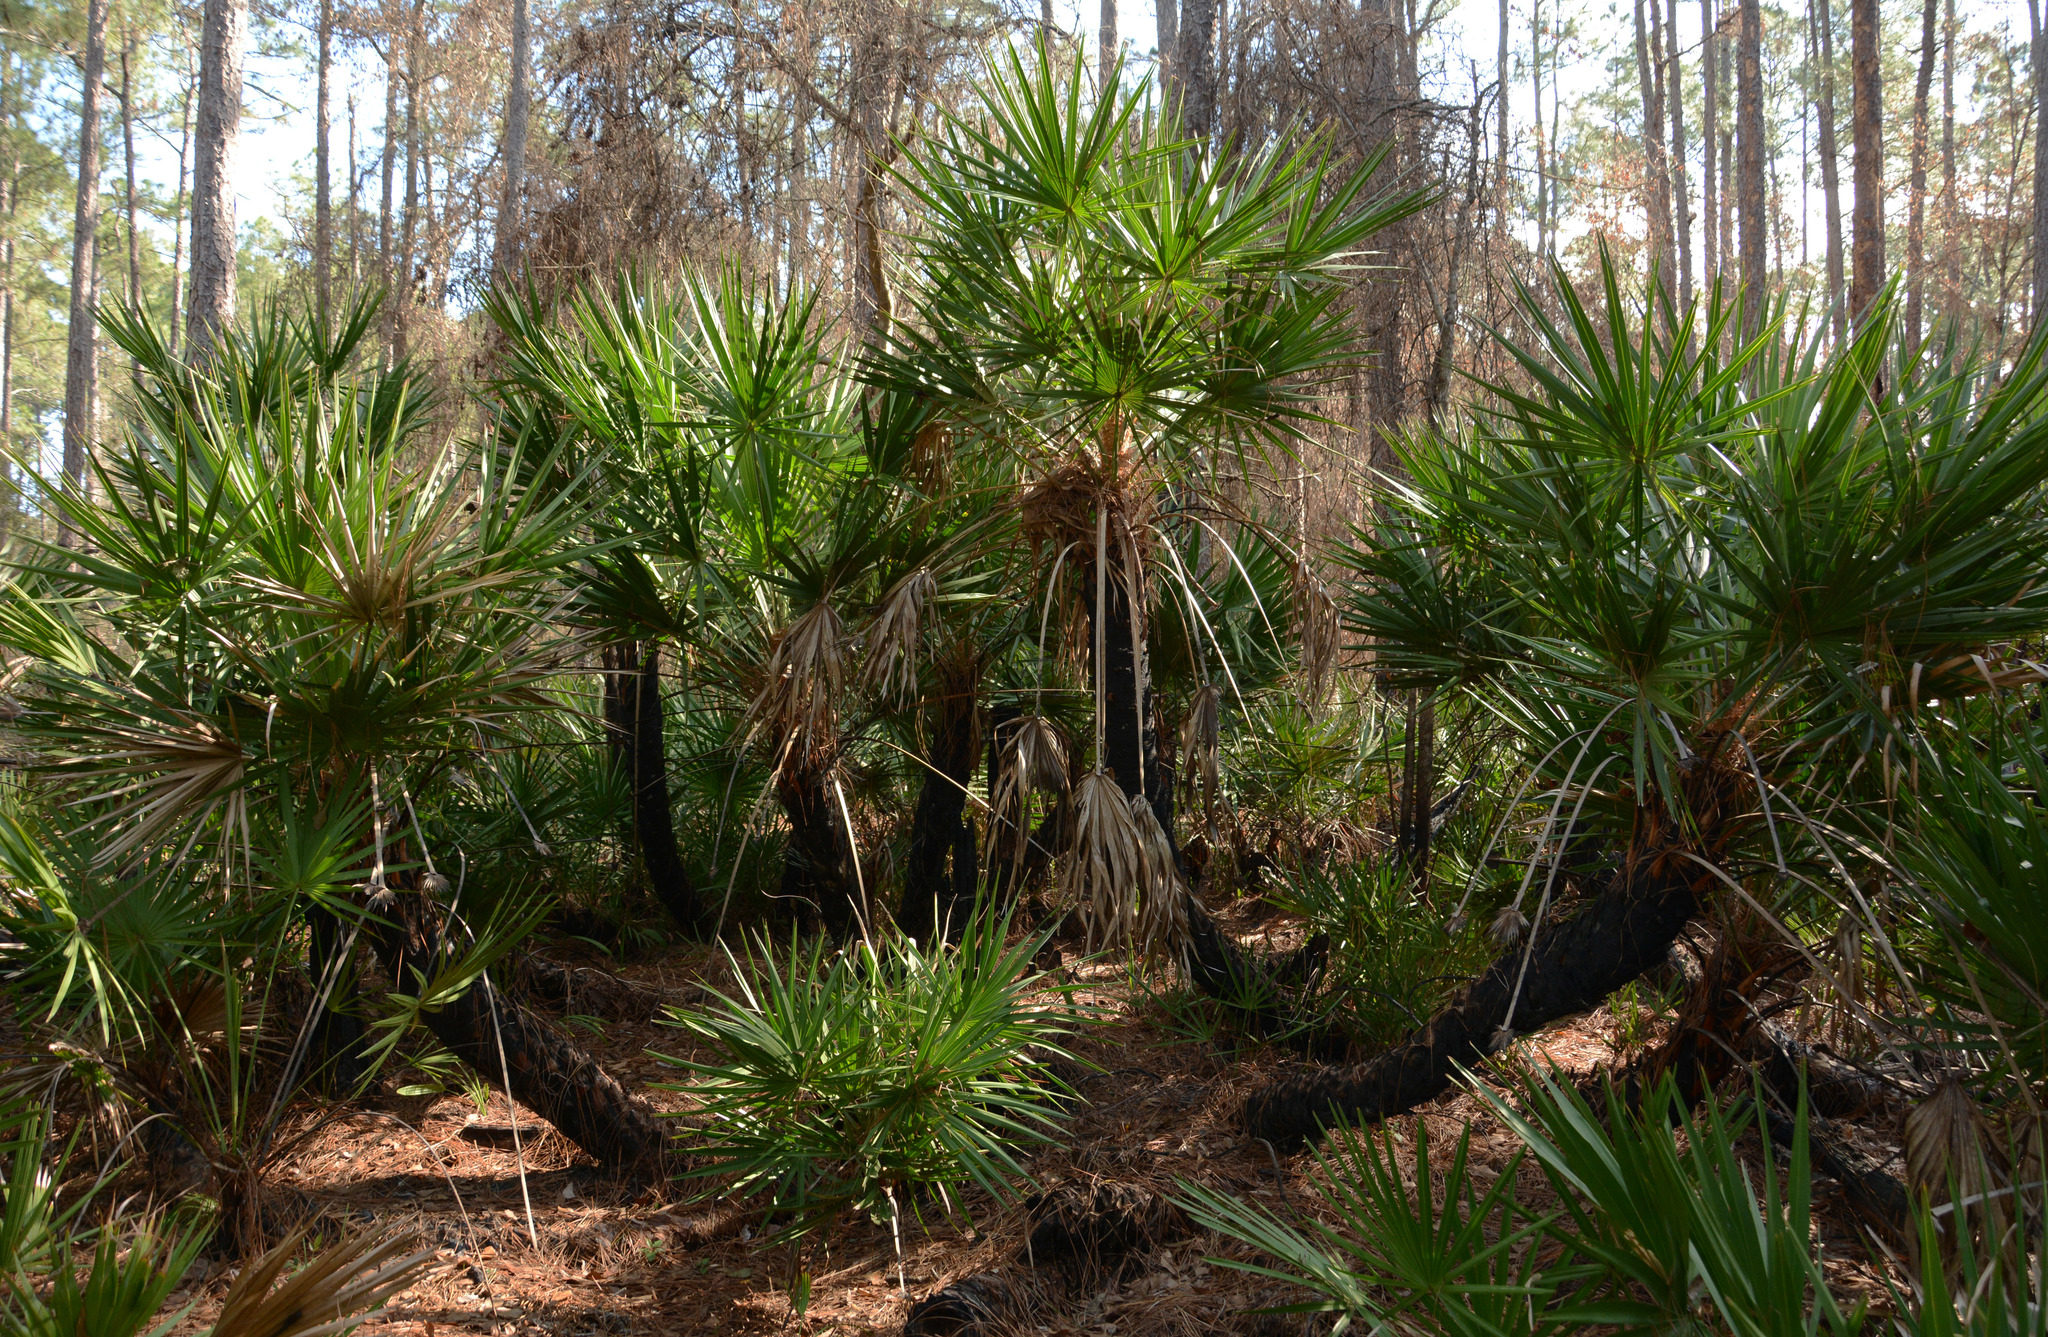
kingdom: Plantae
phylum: Tracheophyta
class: Liliopsida
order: Arecales
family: Arecaceae
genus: Serenoa
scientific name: Serenoa repens
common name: Saw-palmetto
